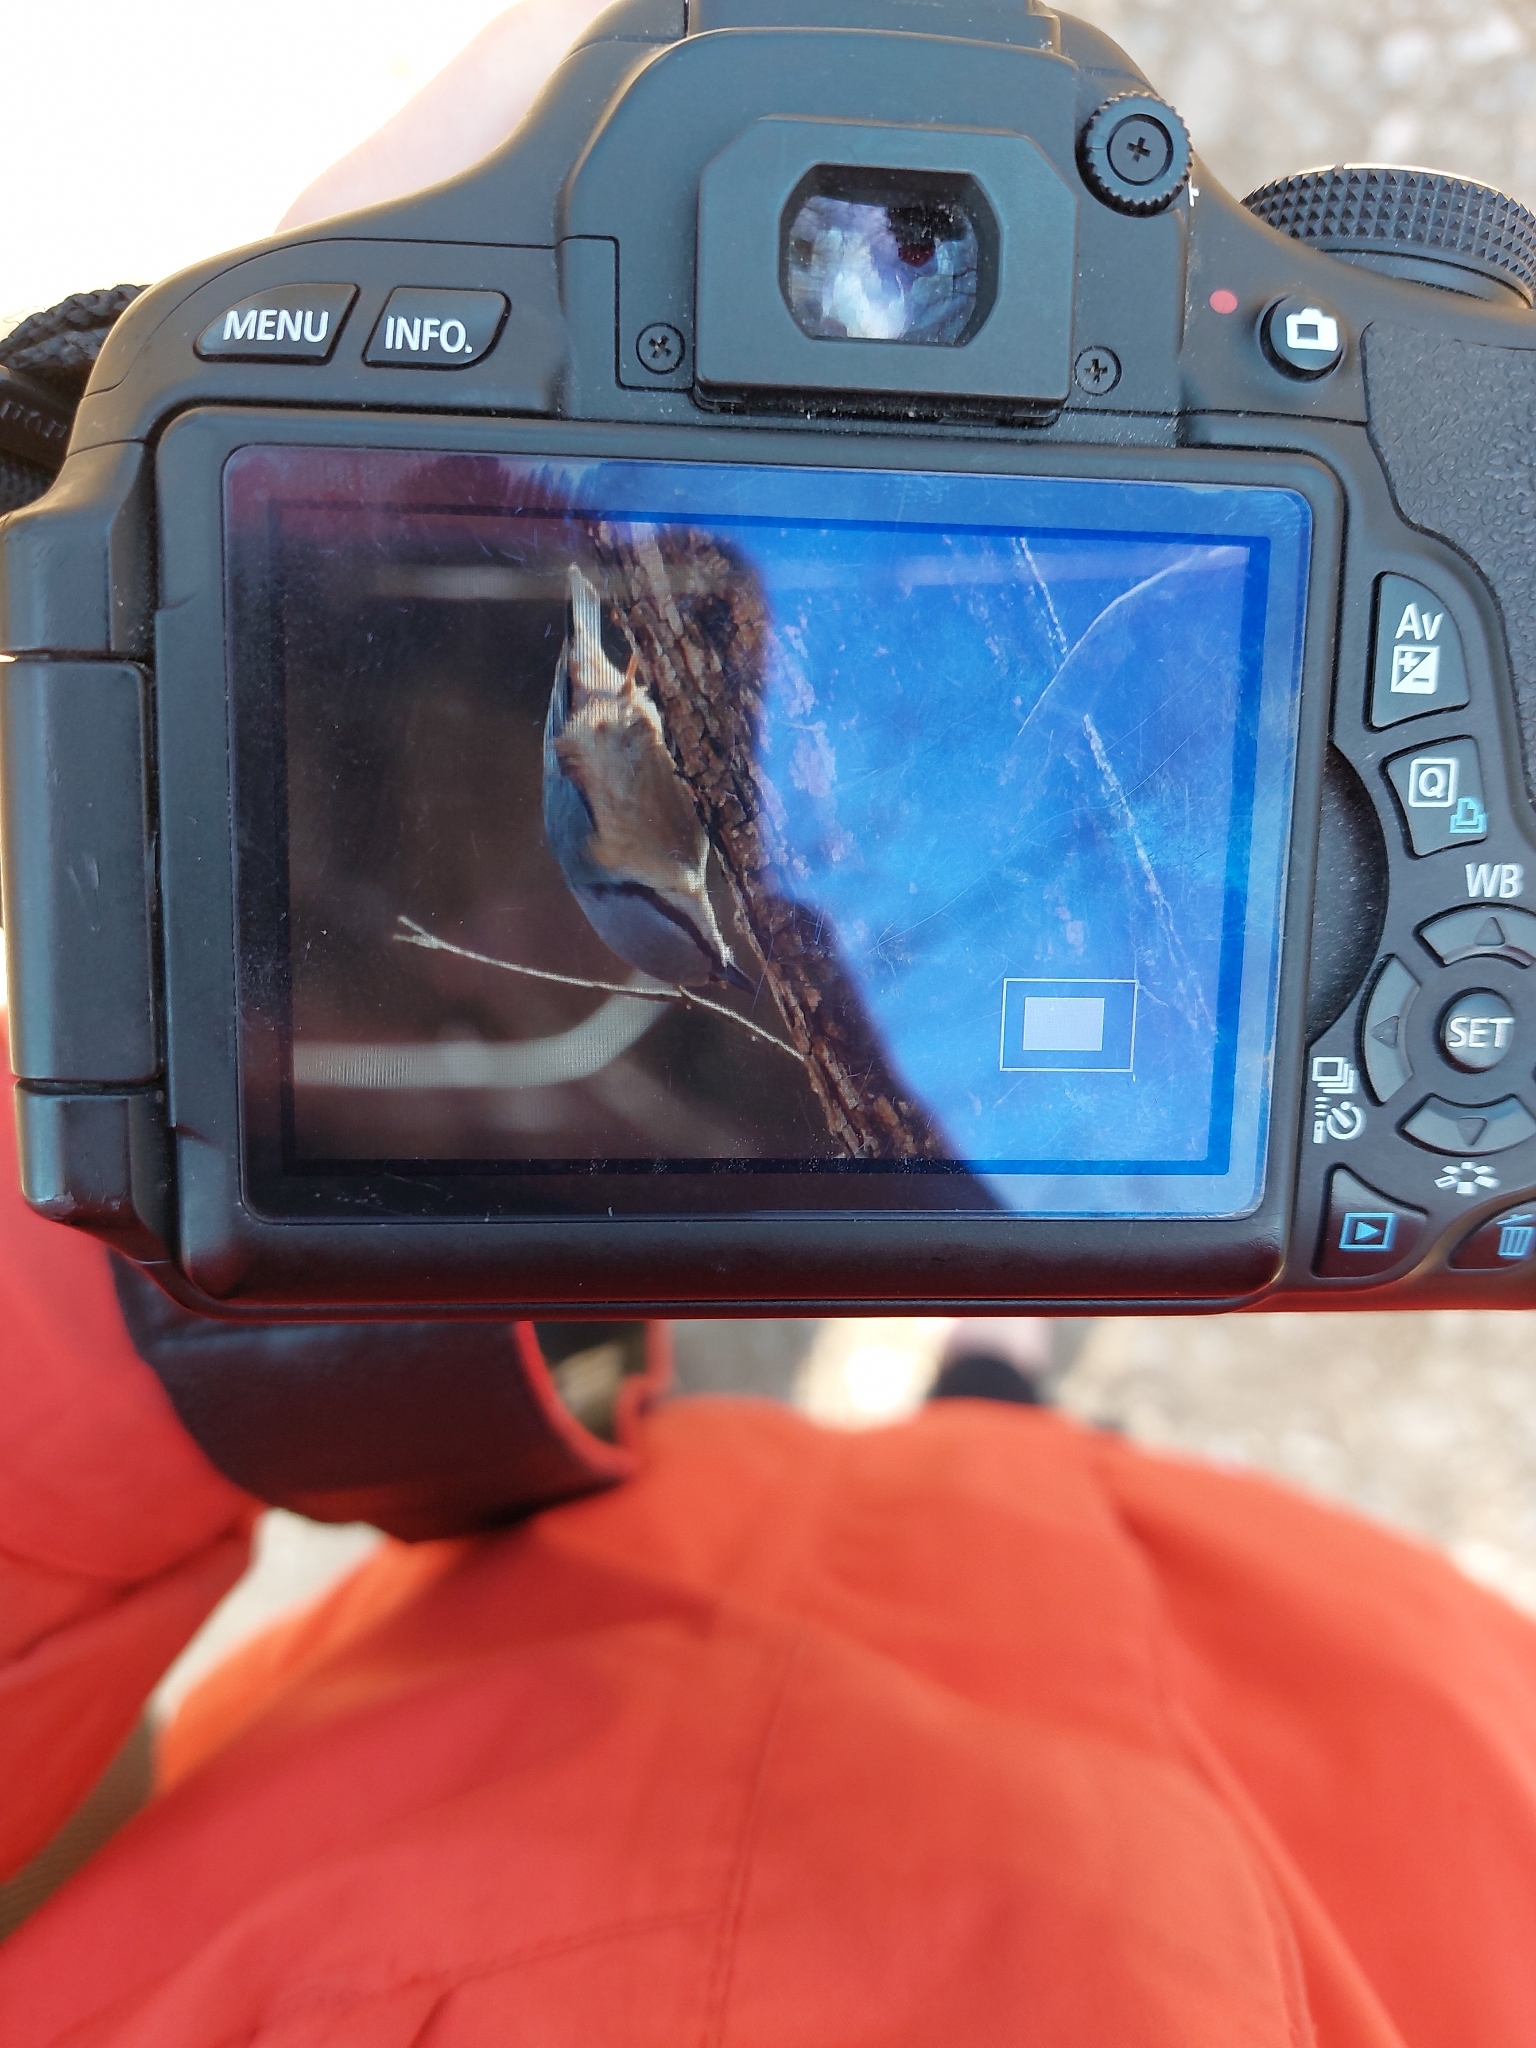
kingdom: Animalia
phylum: Chordata
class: Aves
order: Passeriformes
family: Sittidae
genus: Sitta
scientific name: Sitta europaea
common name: Eurasian nuthatch
